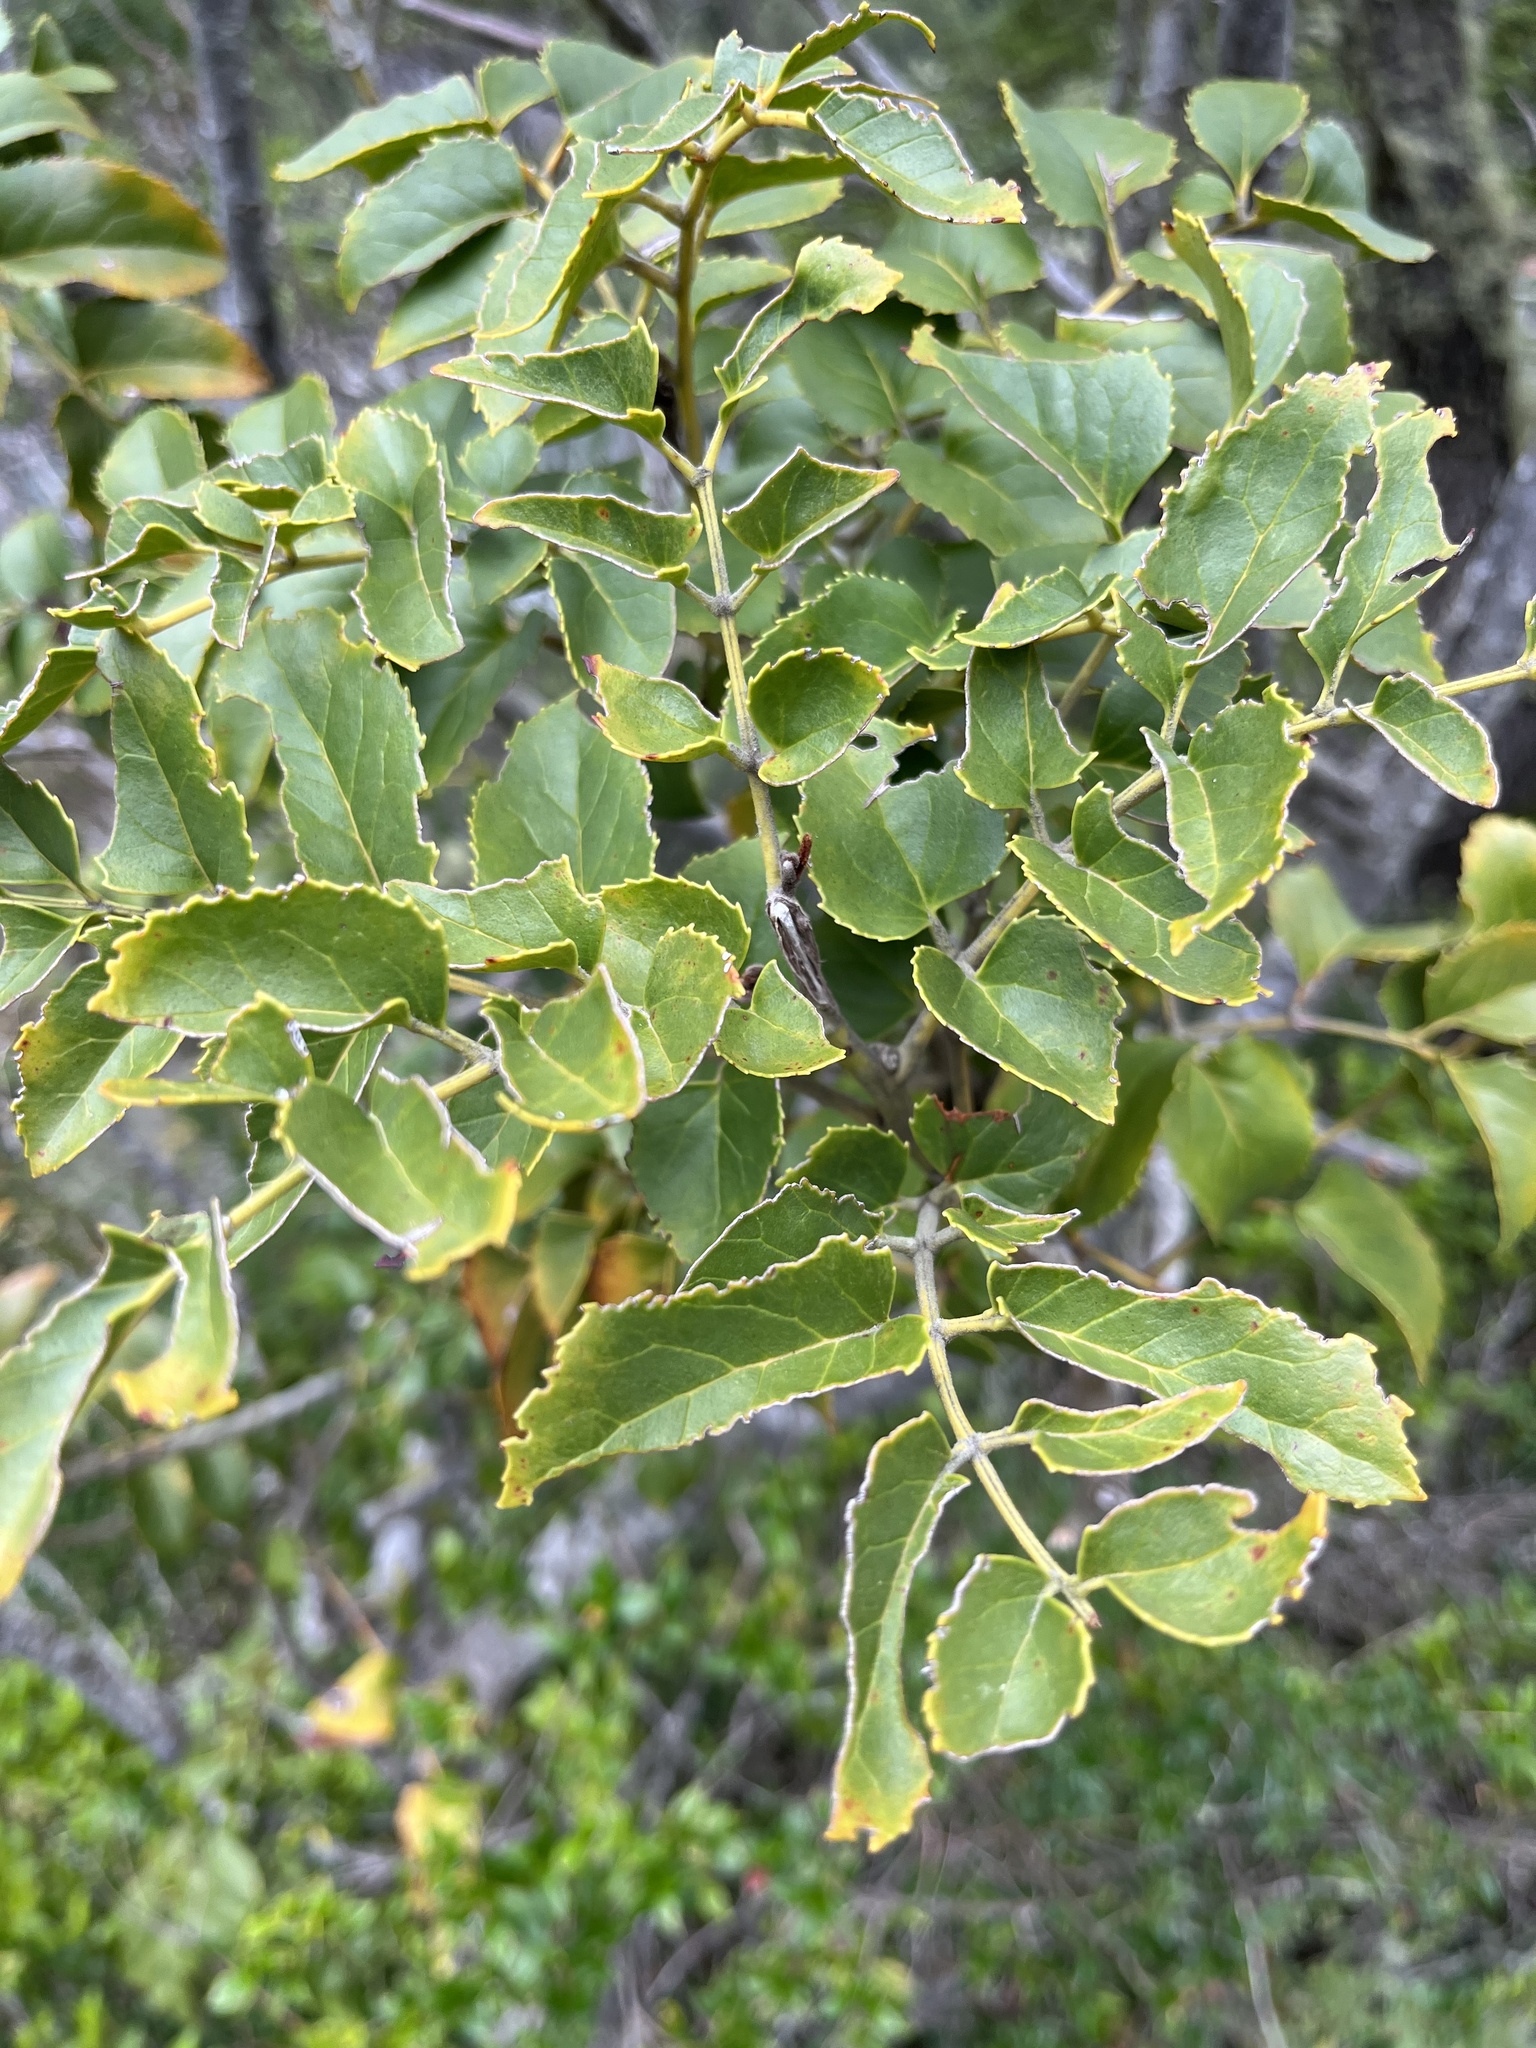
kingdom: Plantae
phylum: Tracheophyta
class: Magnoliopsida
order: Proteales
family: Proteaceae
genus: Gevuina
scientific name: Gevuina avellana
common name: Chilean hazel
